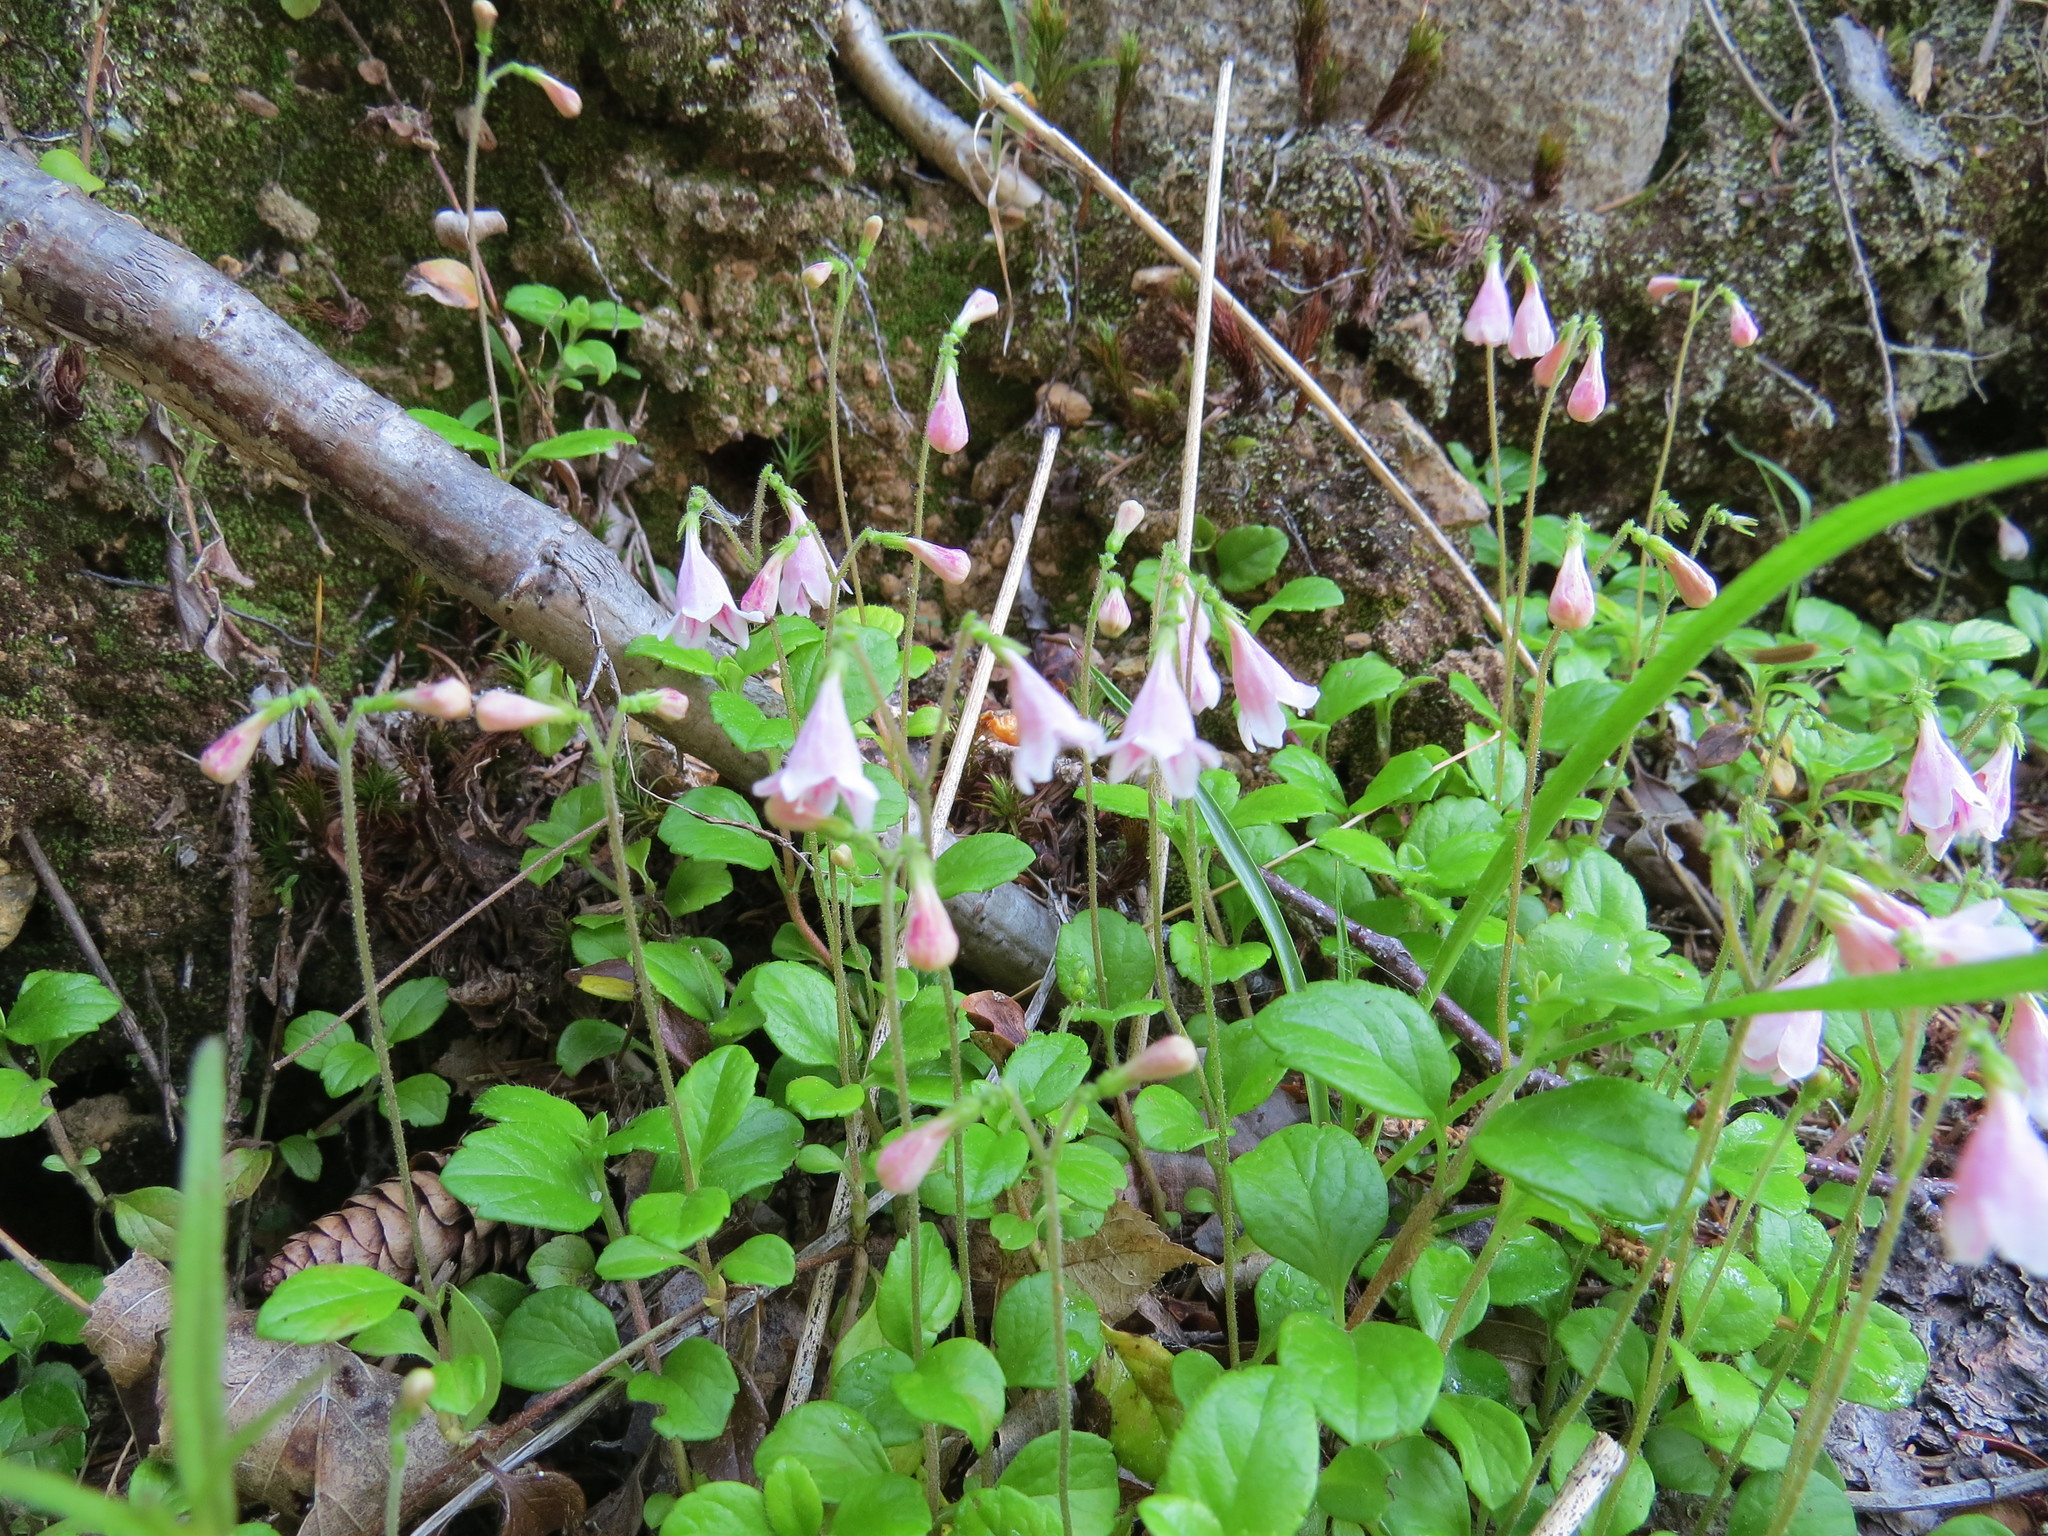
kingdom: Plantae
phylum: Tracheophyta
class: Magnoliopsida
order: Dipsacales
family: Caprifoliaceae
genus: Linnaea
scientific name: Linnaea borealis
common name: Twinflower
